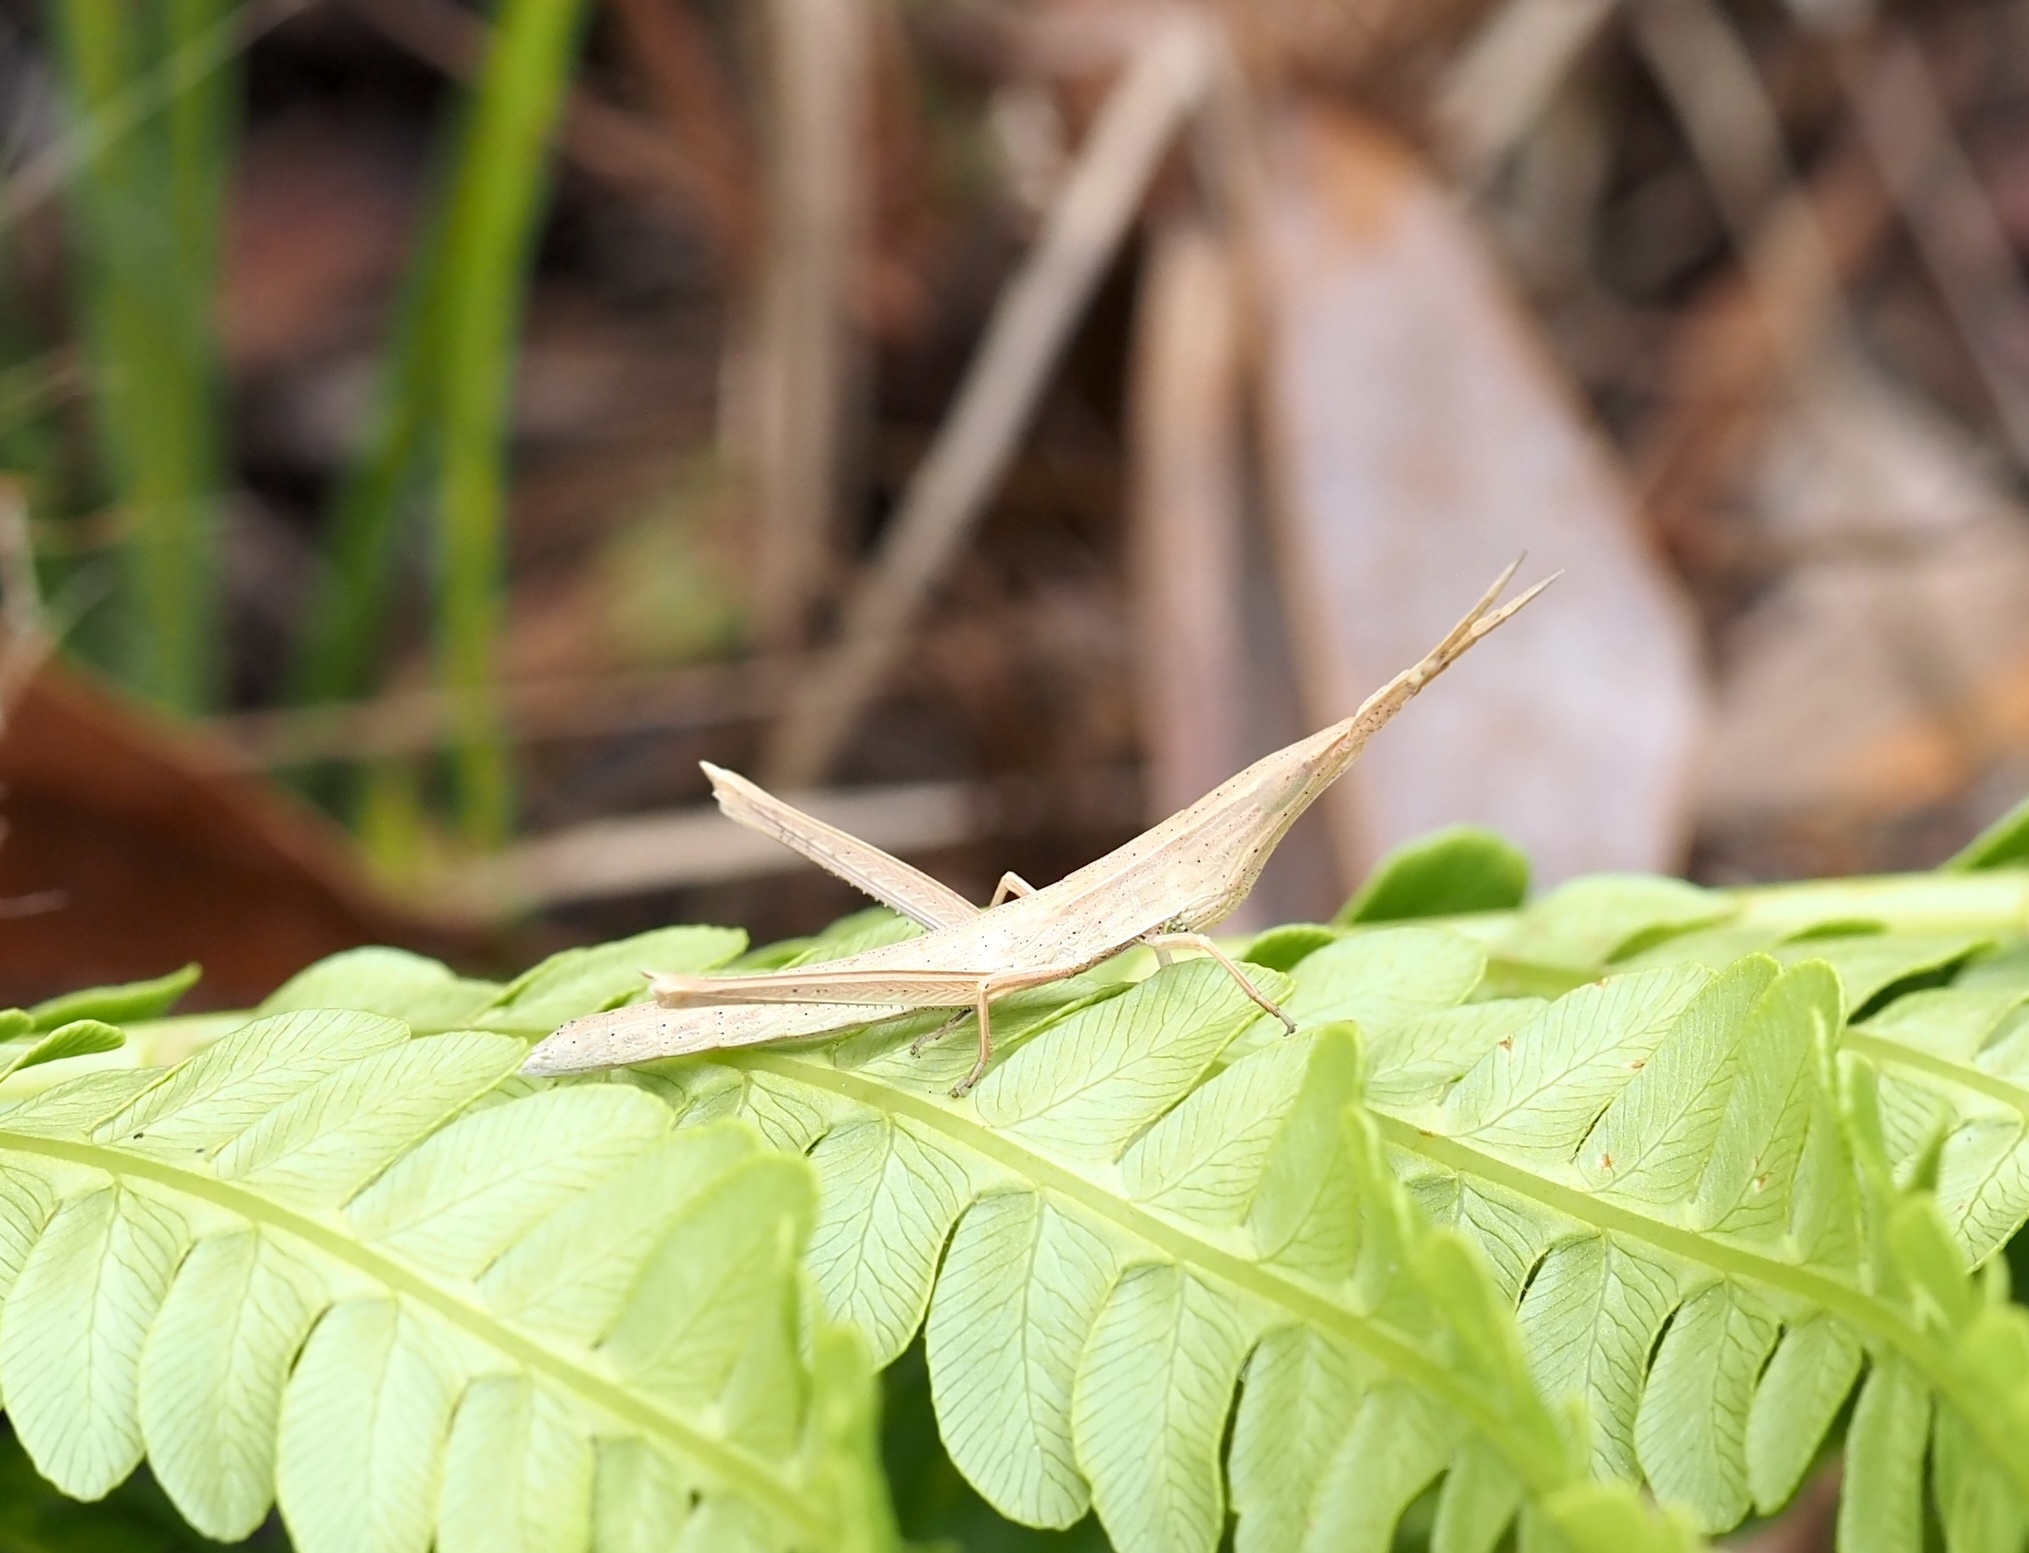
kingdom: Animalia
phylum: Arthropoda
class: Insecta
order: Orthoptera
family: Acrididae
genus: Achurum
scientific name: Achurum carinatum
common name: Long-headed toothpick grasshopper
